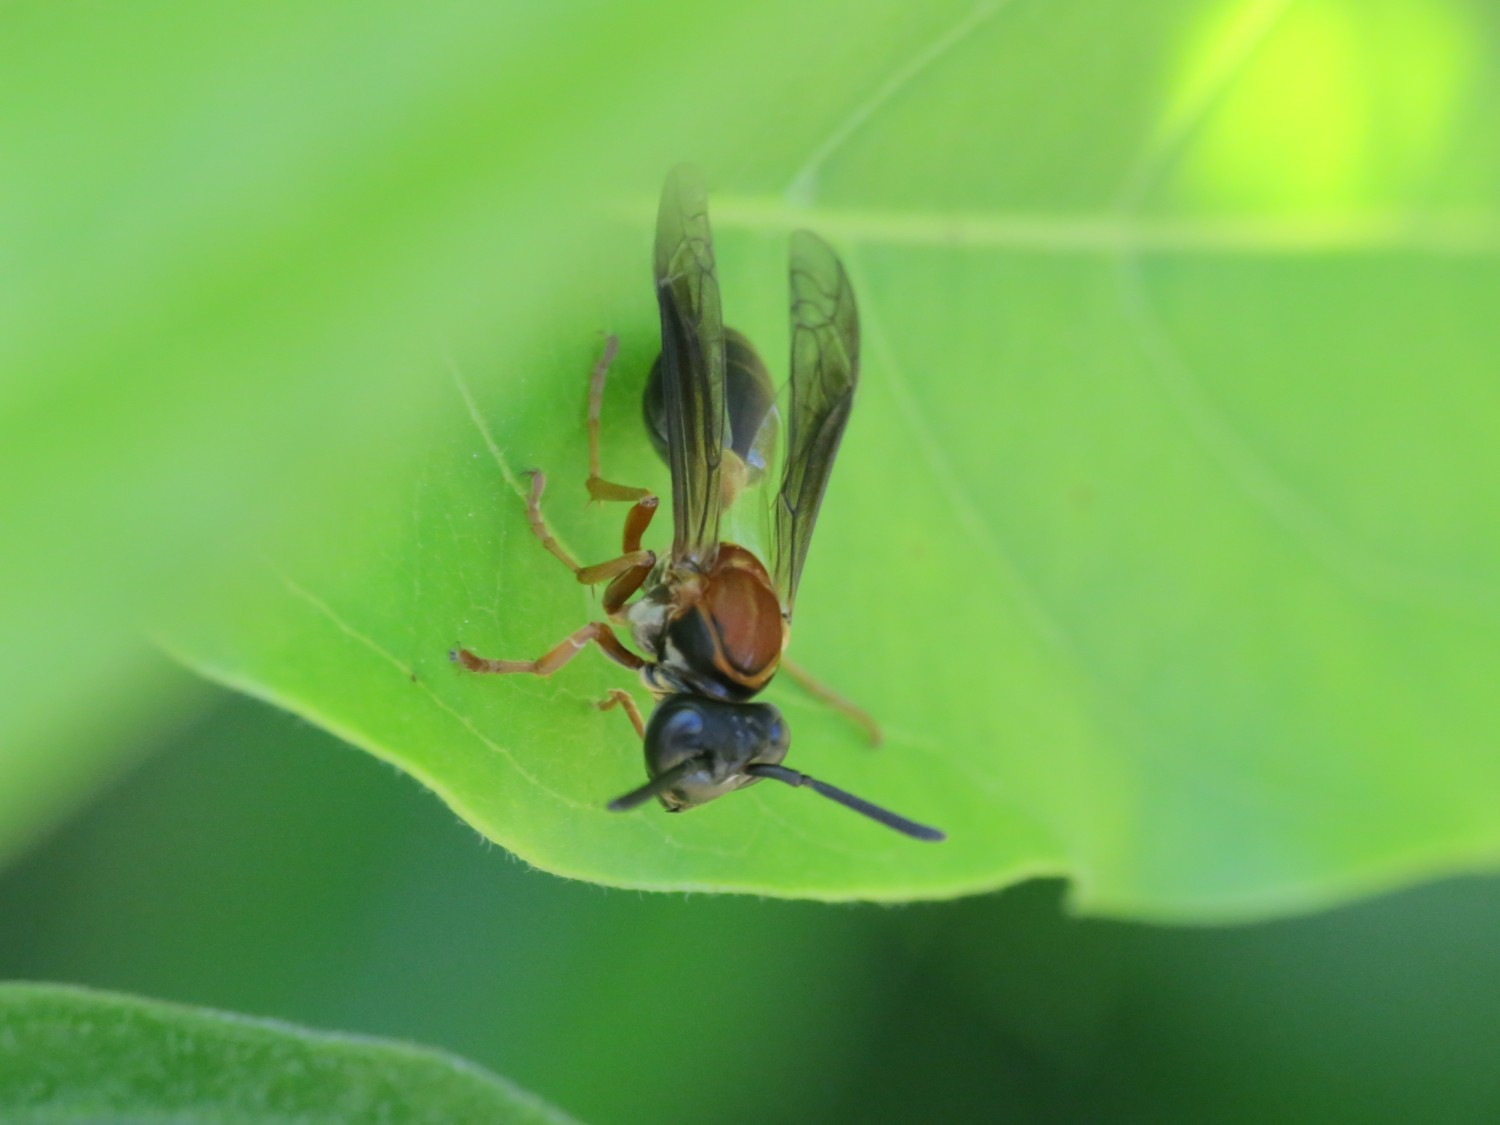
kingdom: Animalia
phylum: Arthropoda
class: Insecta
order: Hymenoptera
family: Eumenidae
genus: Polybia
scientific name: Polybia sericea
